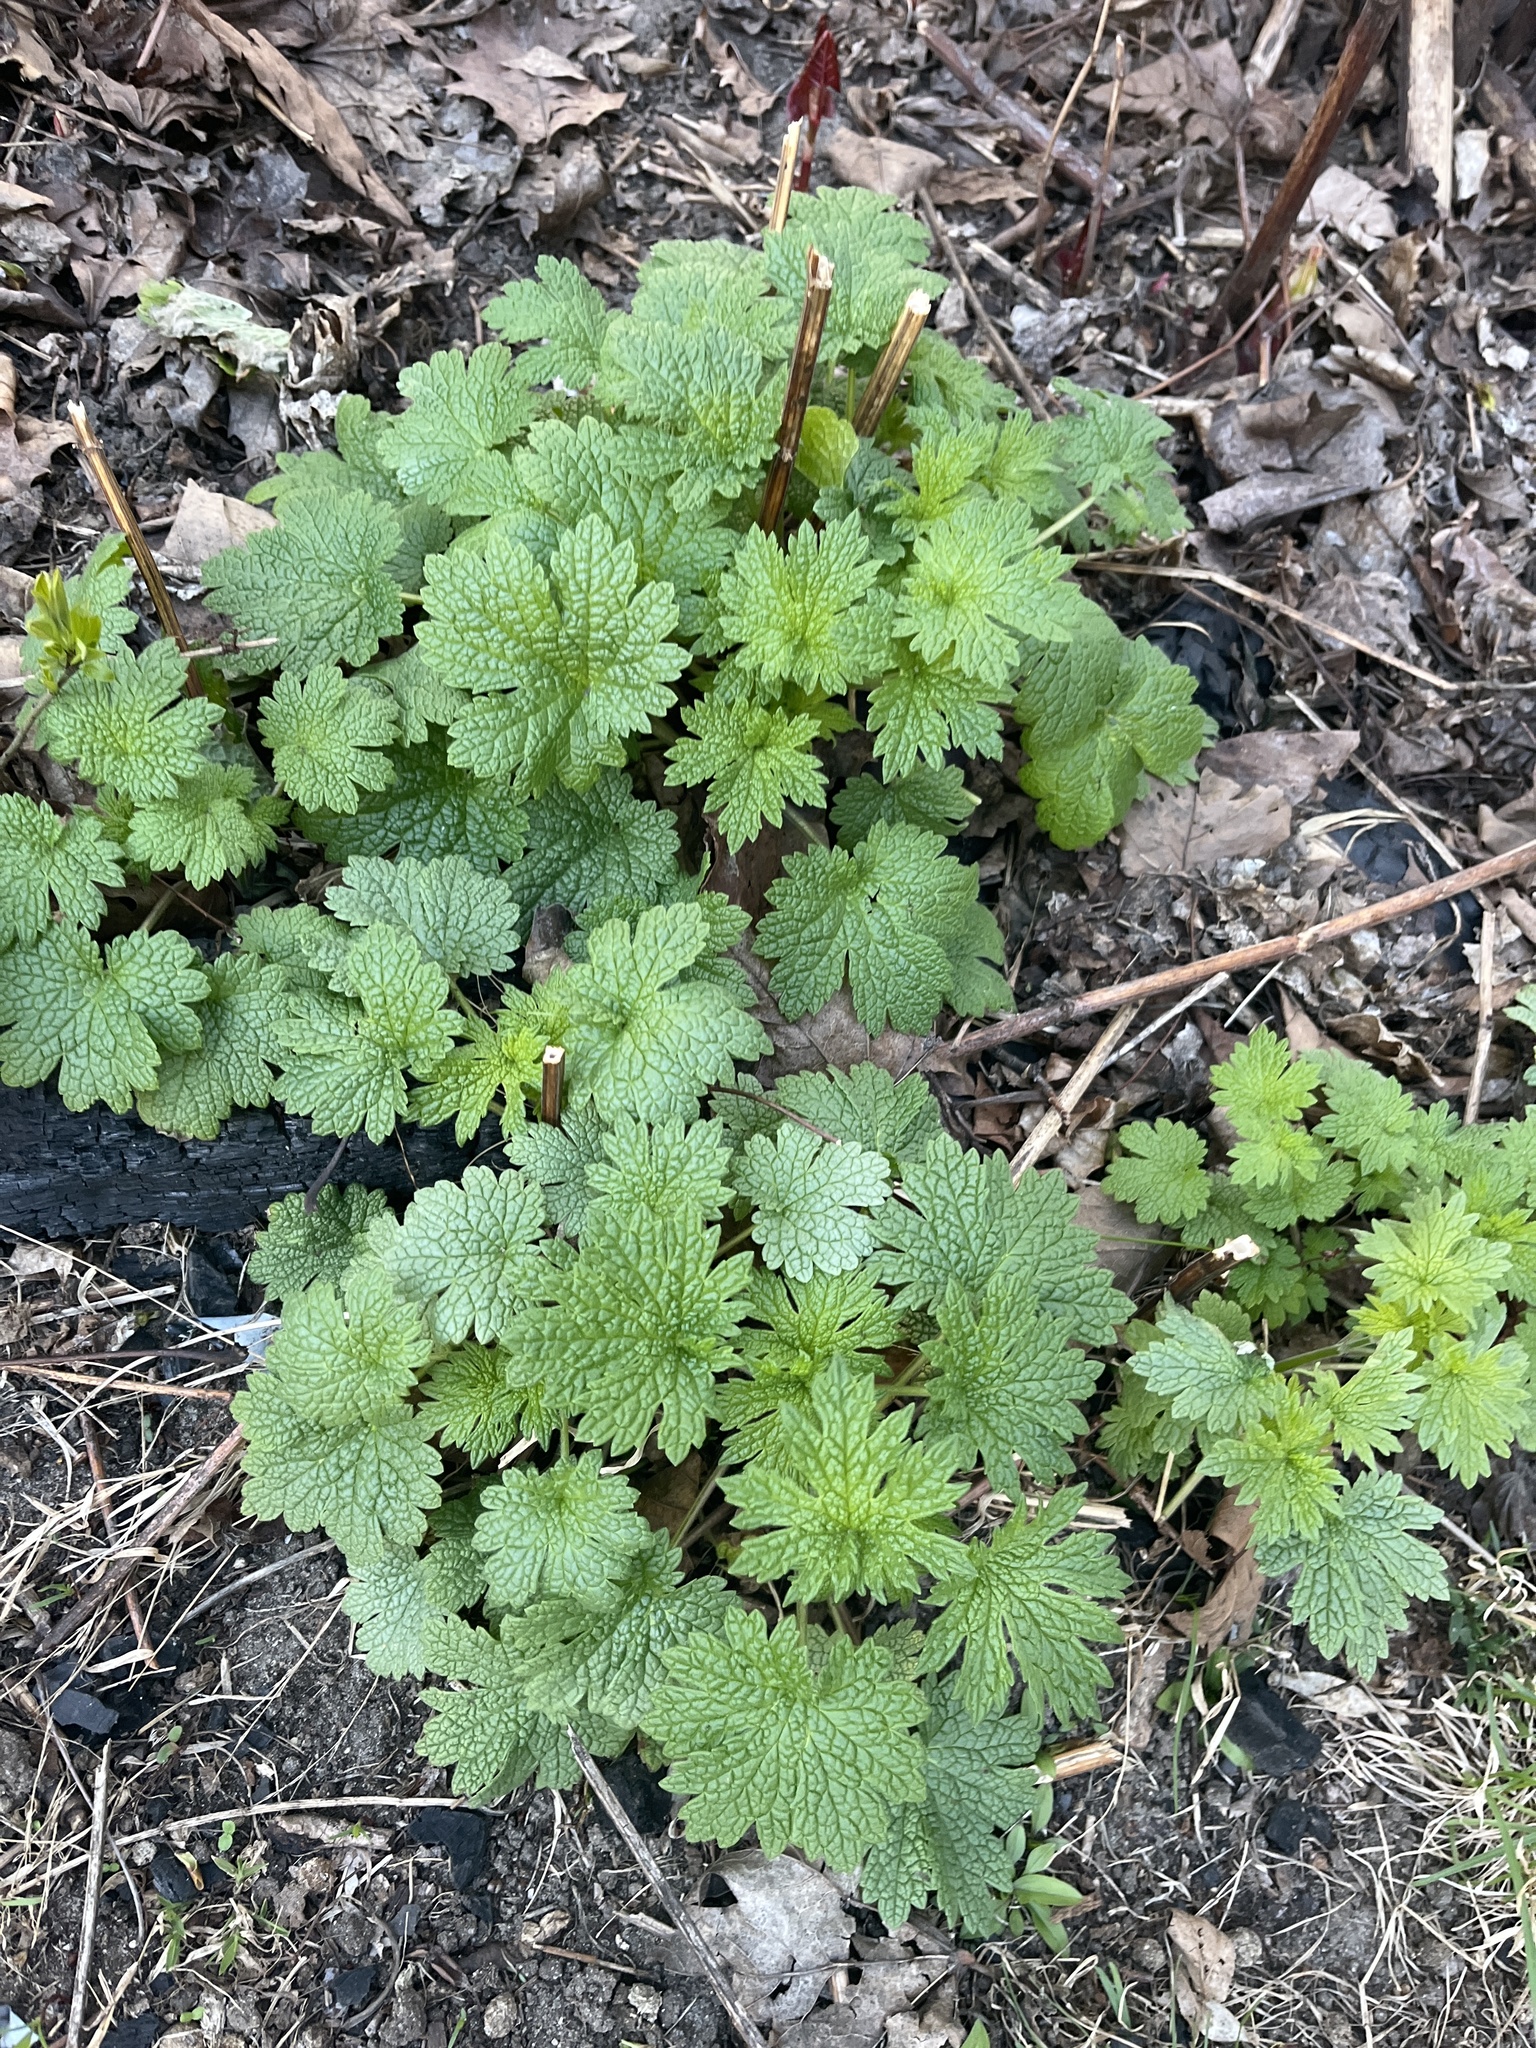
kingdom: Plantae
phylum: Tracheophyta
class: Magnoliopsida
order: Lamiales
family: Lamiaceae
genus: Leonurus
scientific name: Leonurus cardiaca
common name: Motherwort
